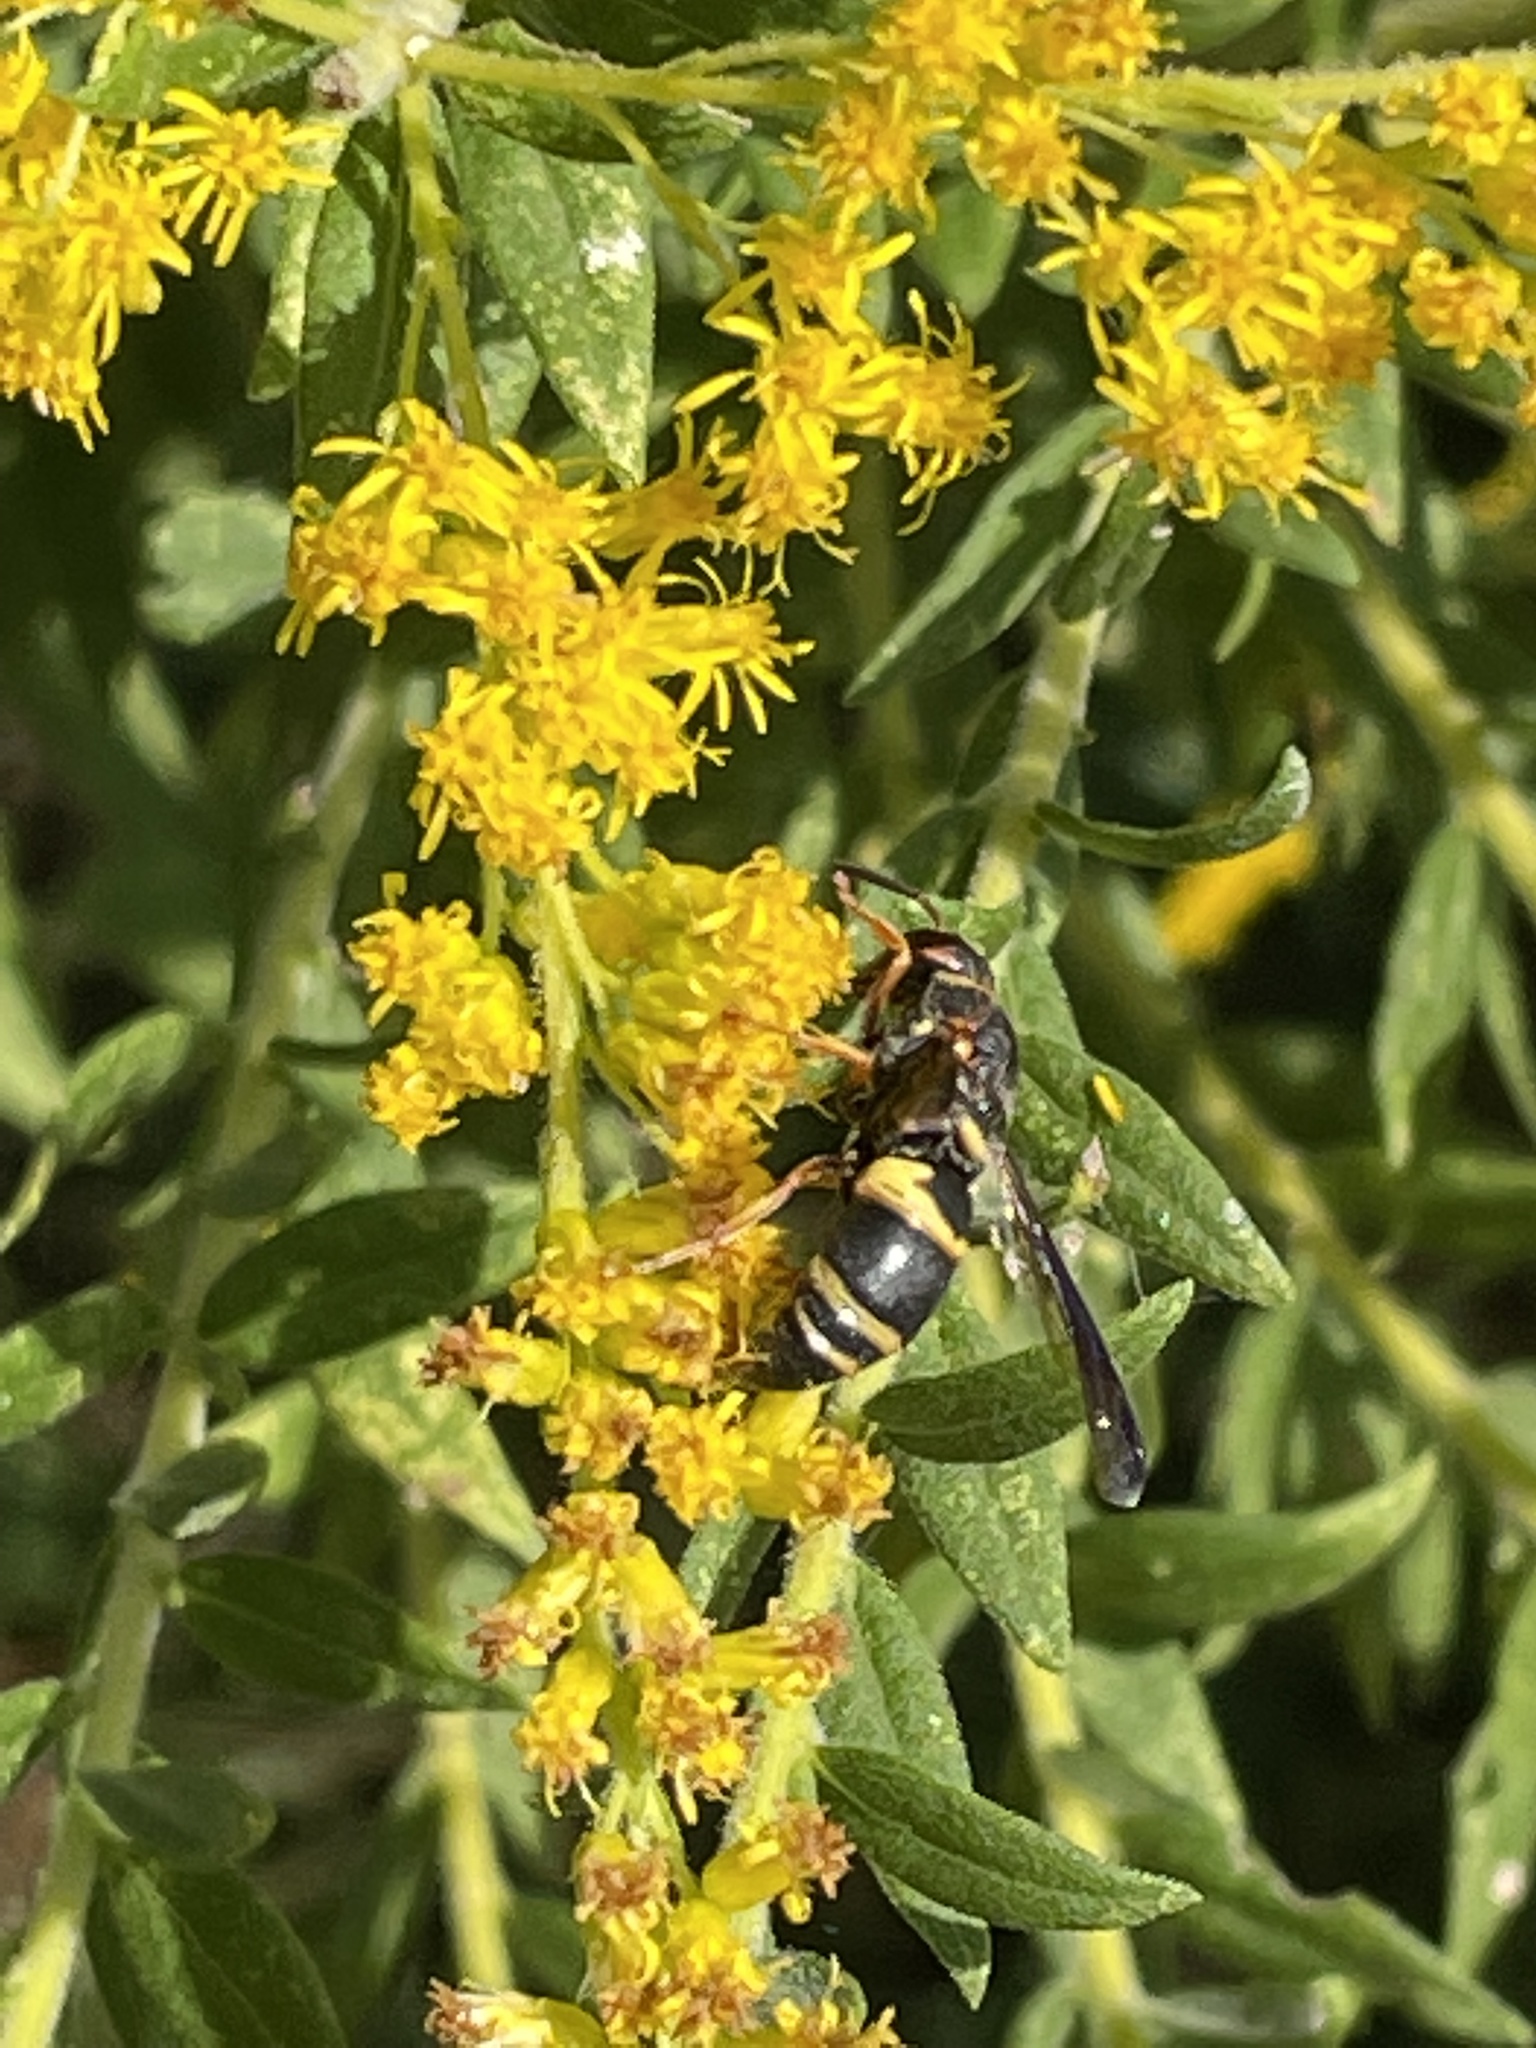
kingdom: Animalia
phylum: Arthropoda
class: Insecta
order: Hymenoptera
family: Eumenidae
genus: Euodynerus
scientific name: Euodynerus hidalgo
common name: Wasp
